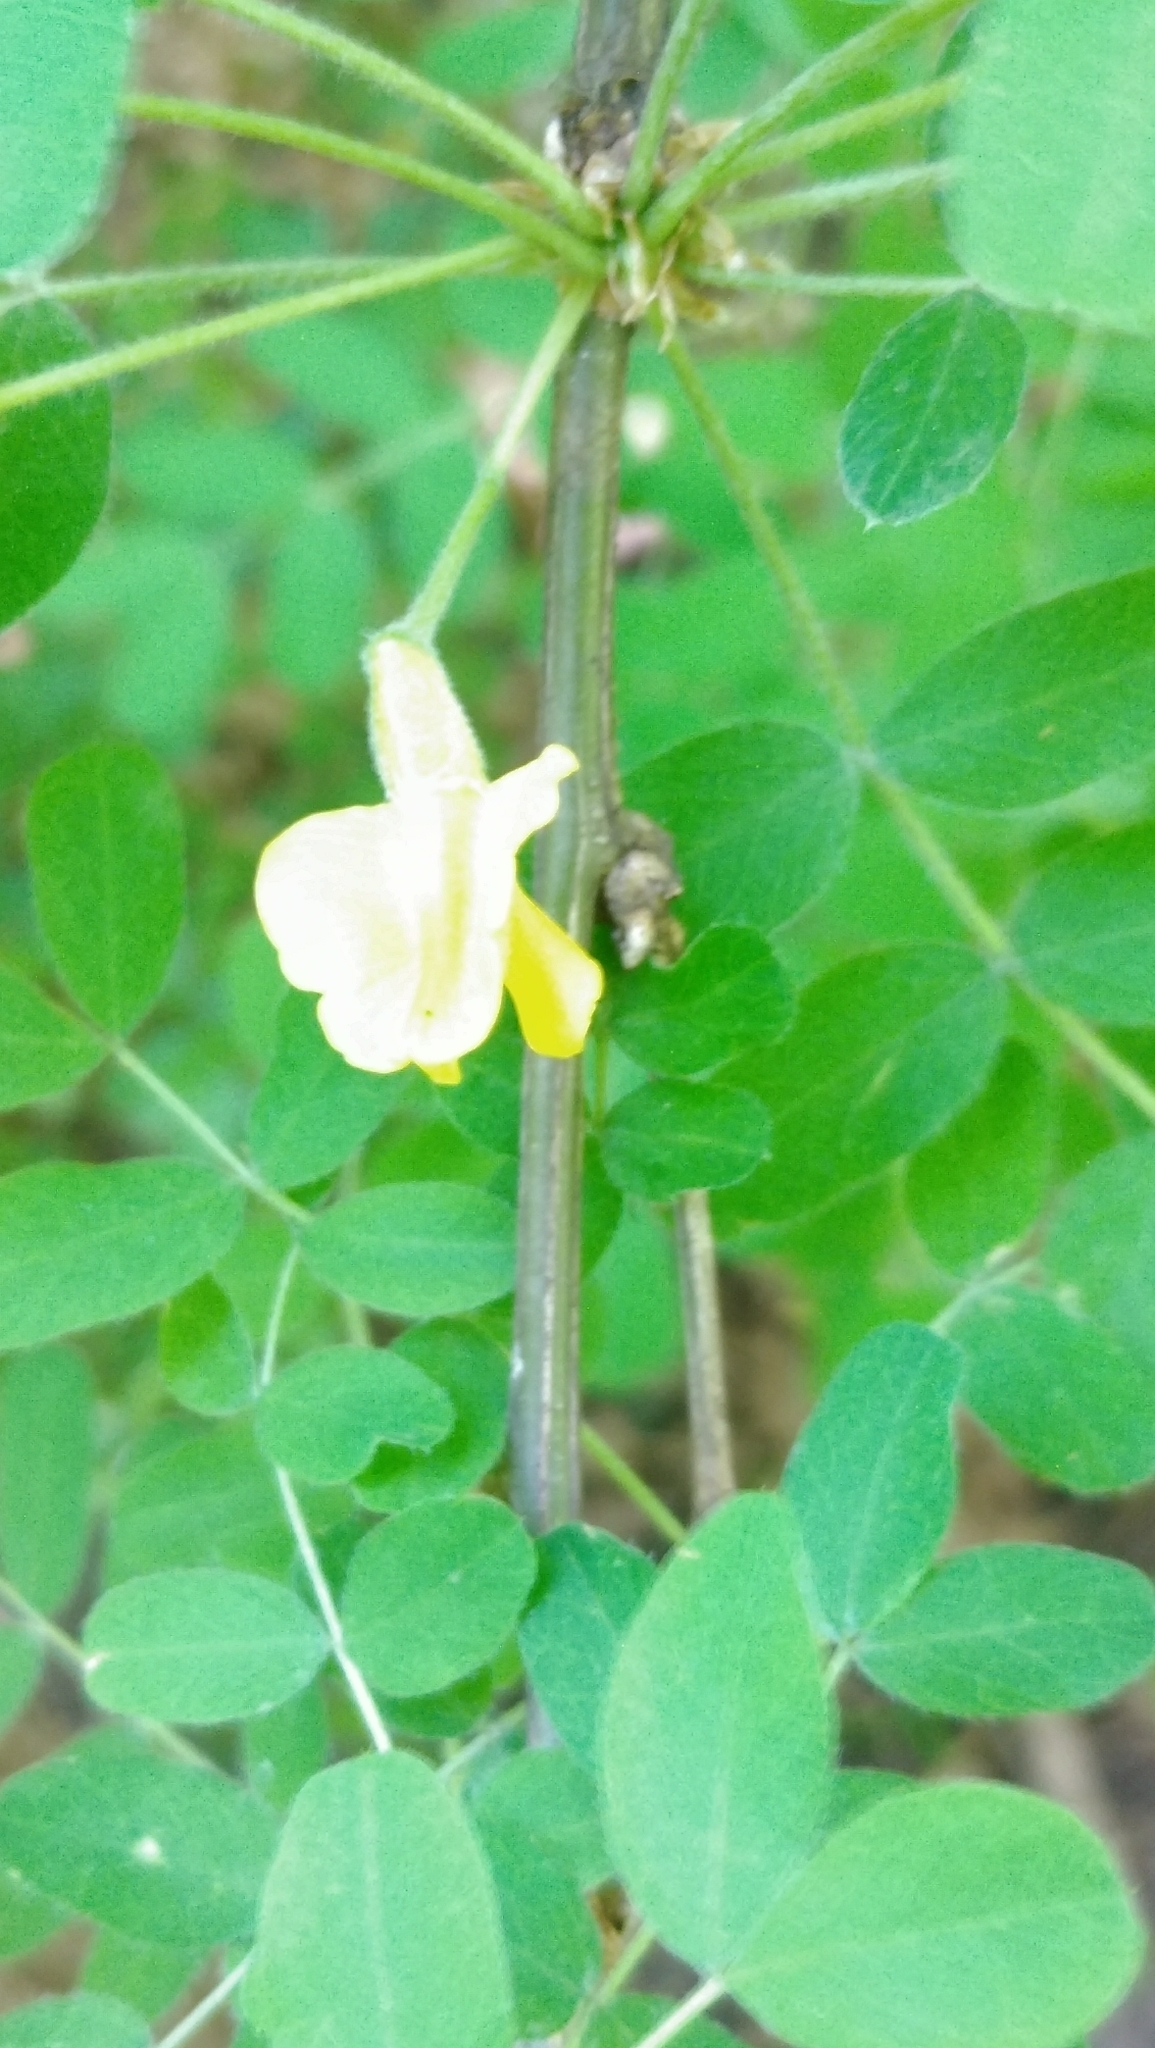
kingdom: Plantae
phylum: Tracheophyta
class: Magnoliopsida
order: Fabales
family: Fabaceae
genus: Caragana
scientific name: Caragana arborescens
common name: Siberian peashrub
